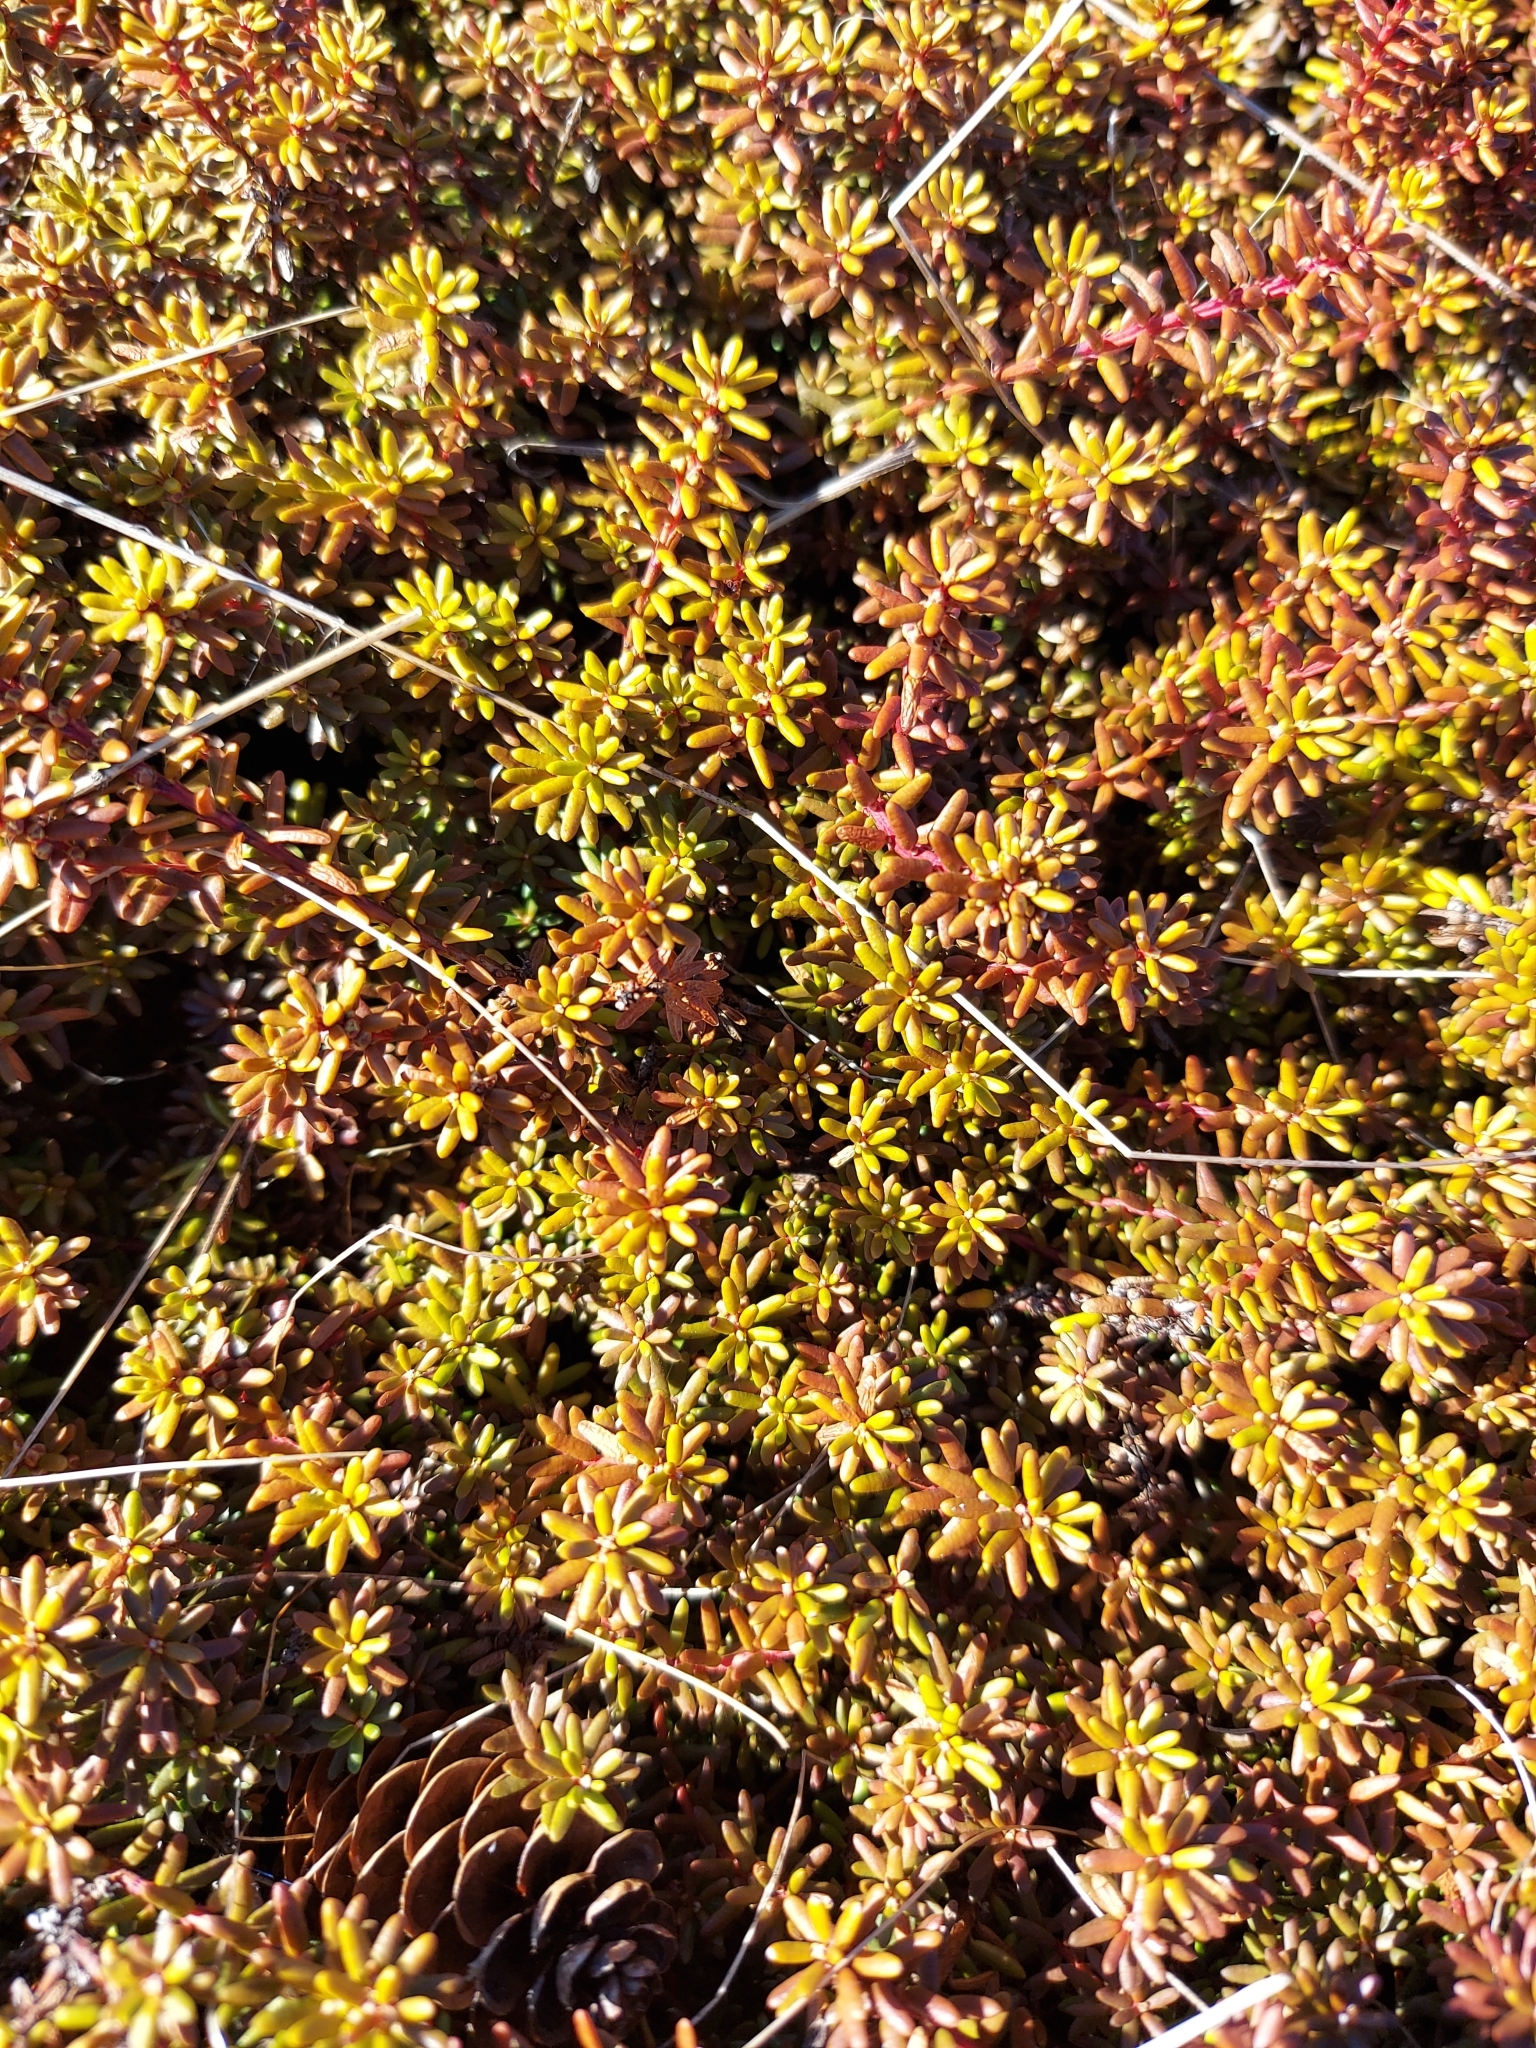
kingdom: Plantae
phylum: Tracheophyta
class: Magnoliopsida
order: Ericales
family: Ericaceae
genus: Empetrum
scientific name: Empetrum nigrum
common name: Black crowberry
